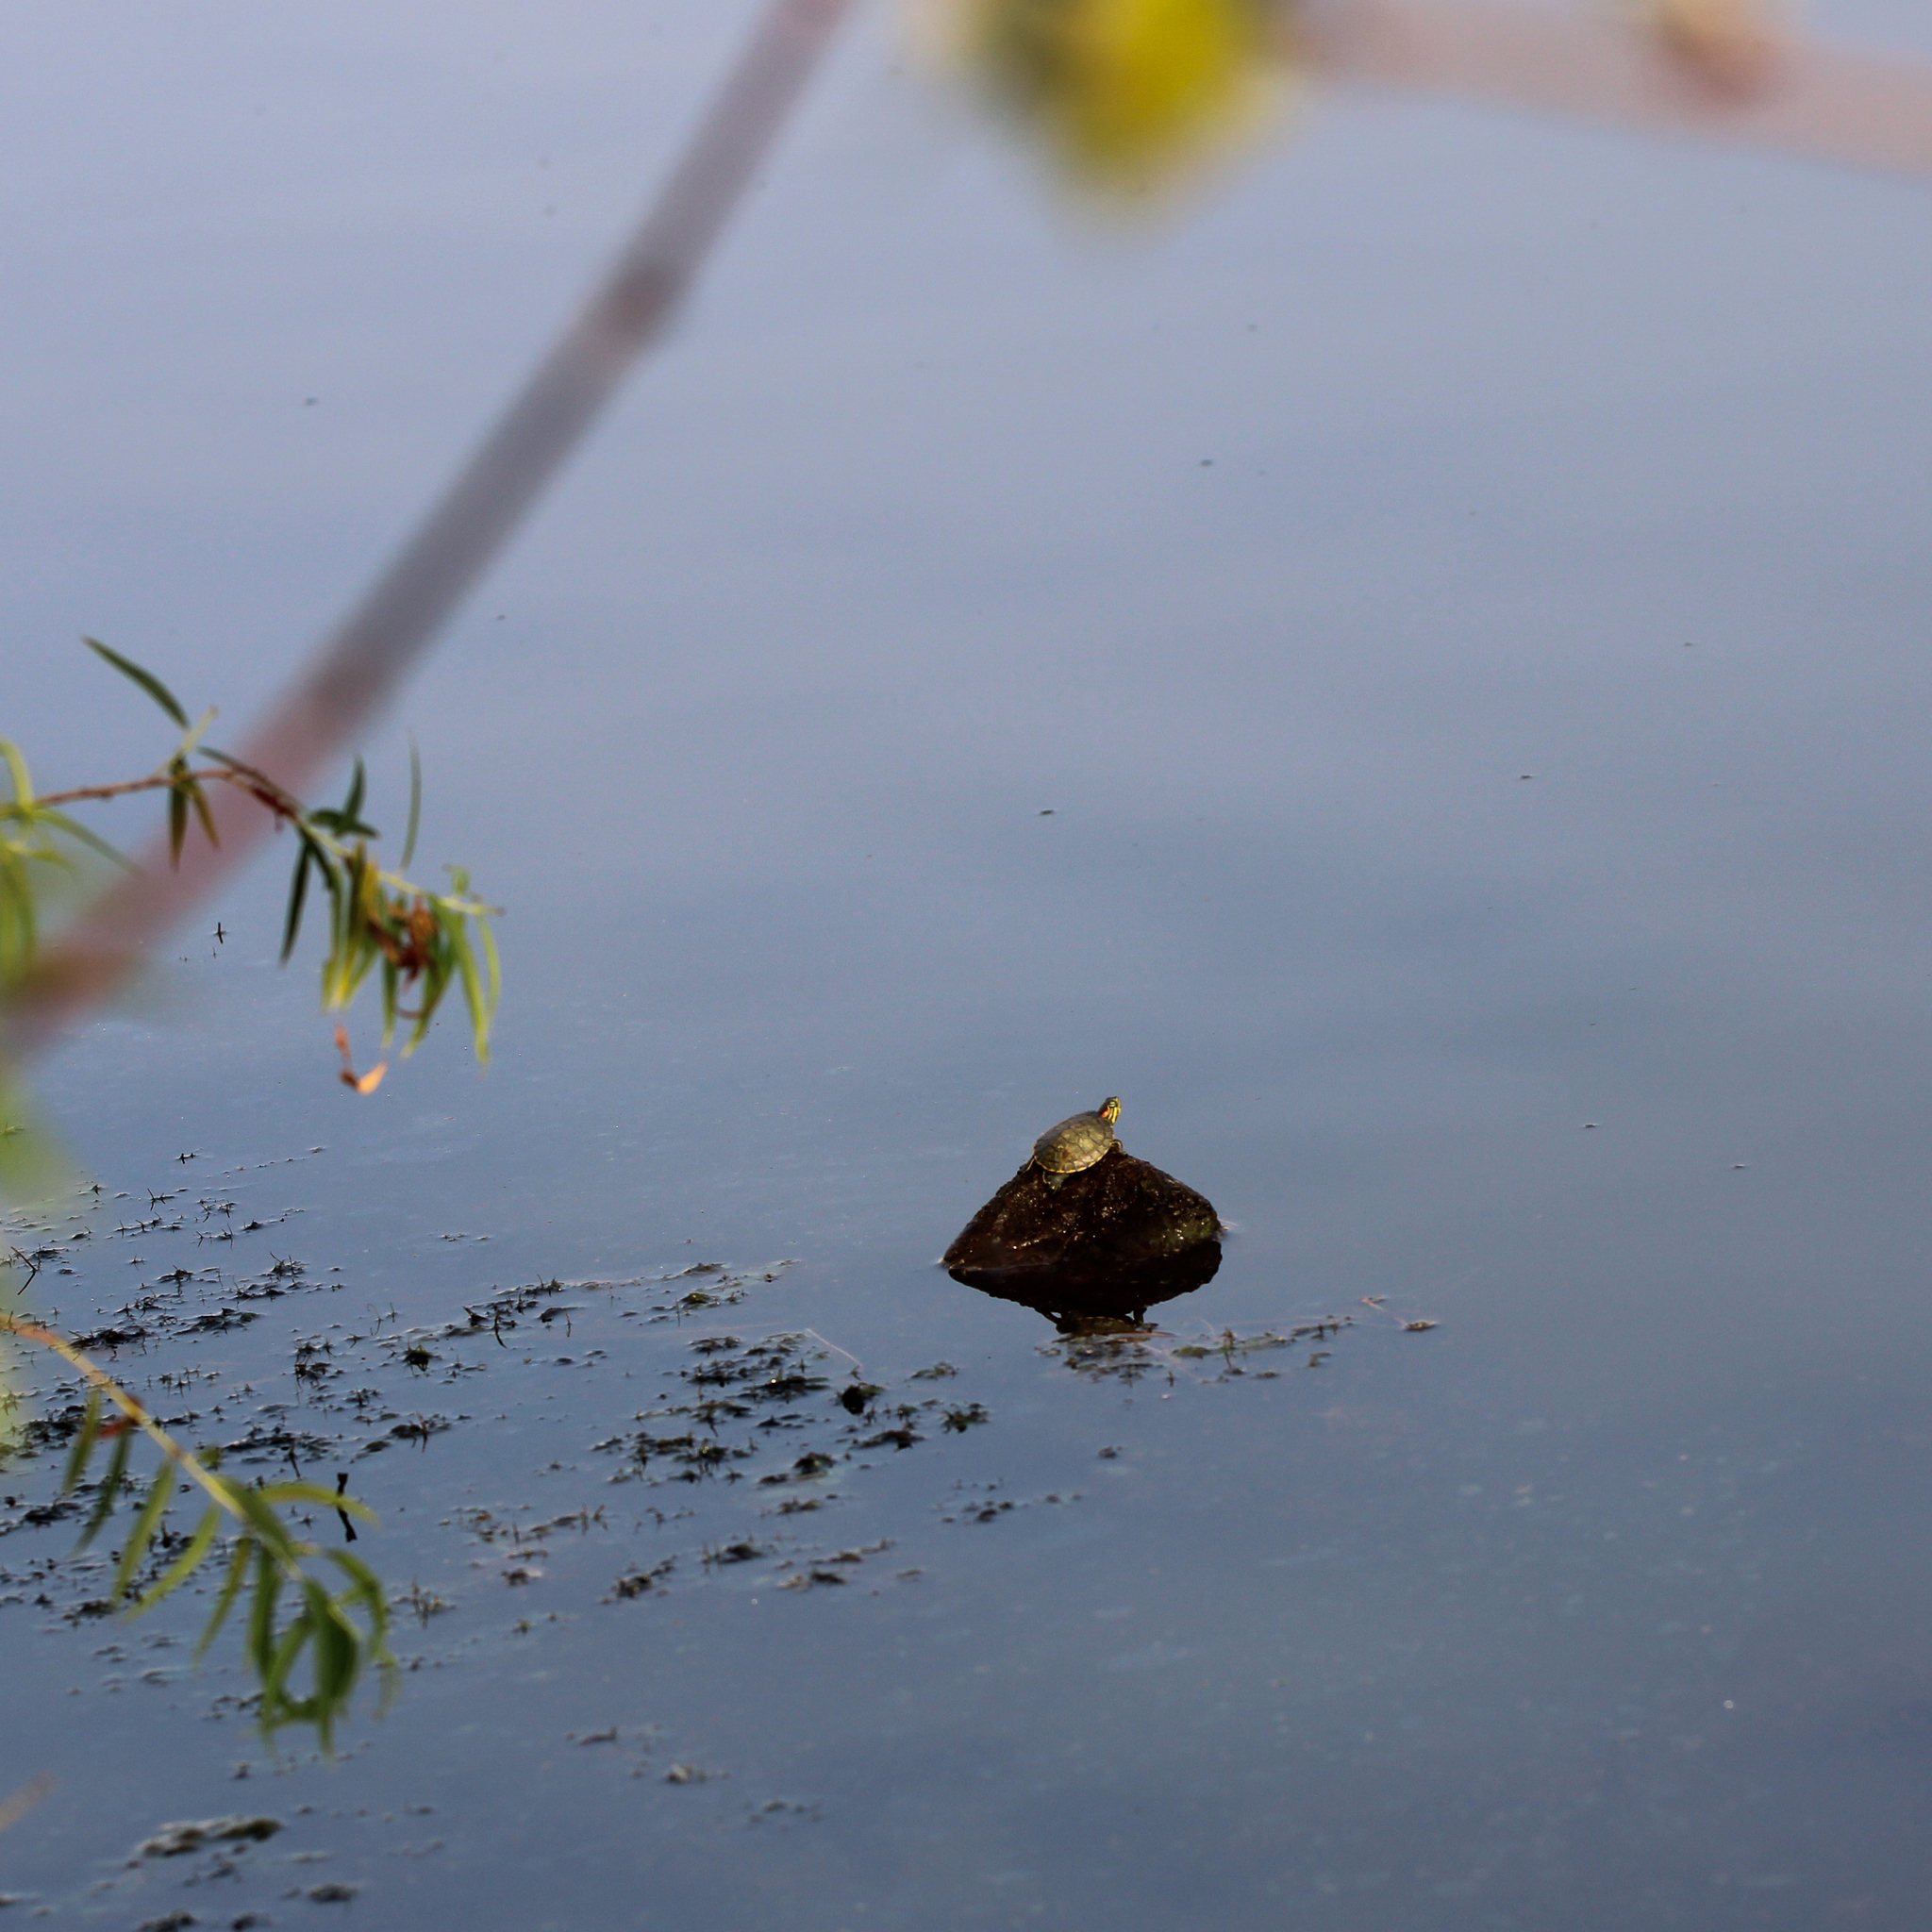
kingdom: Animalia
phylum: Chordata
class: Testudines
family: Emydidae
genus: Trachemys
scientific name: Trachemys scripta
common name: Slider
